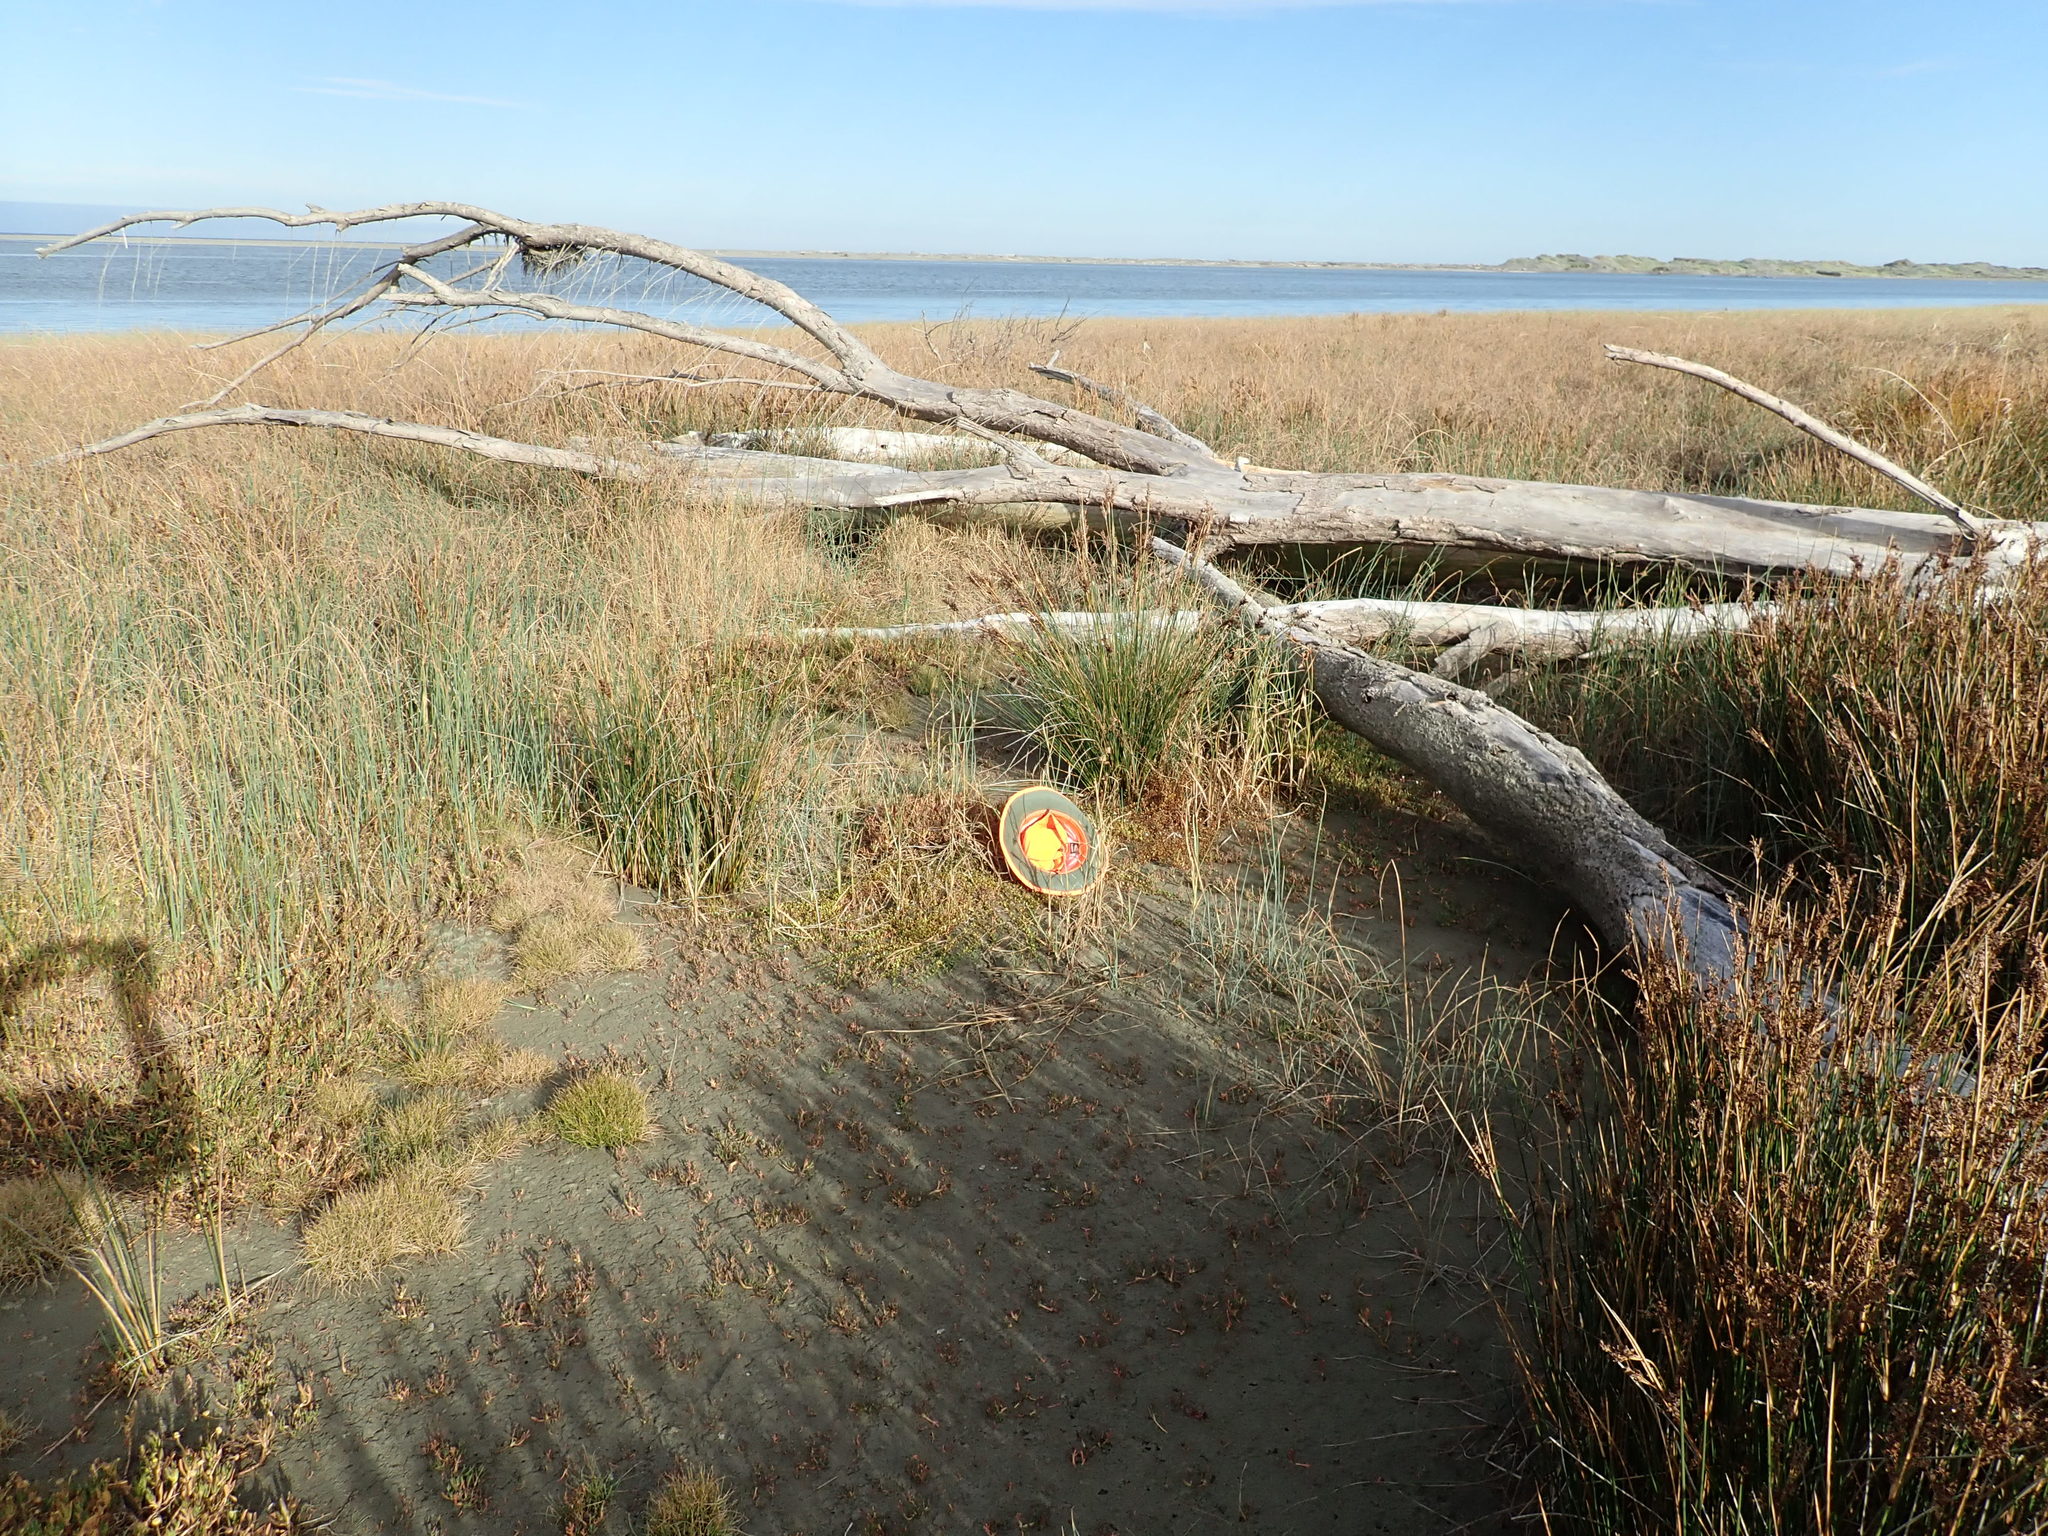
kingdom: Plantae
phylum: Tracheophyta
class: Magnoliopsida
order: Ericales
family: Primulaceae
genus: Samolus
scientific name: Samolus repens
